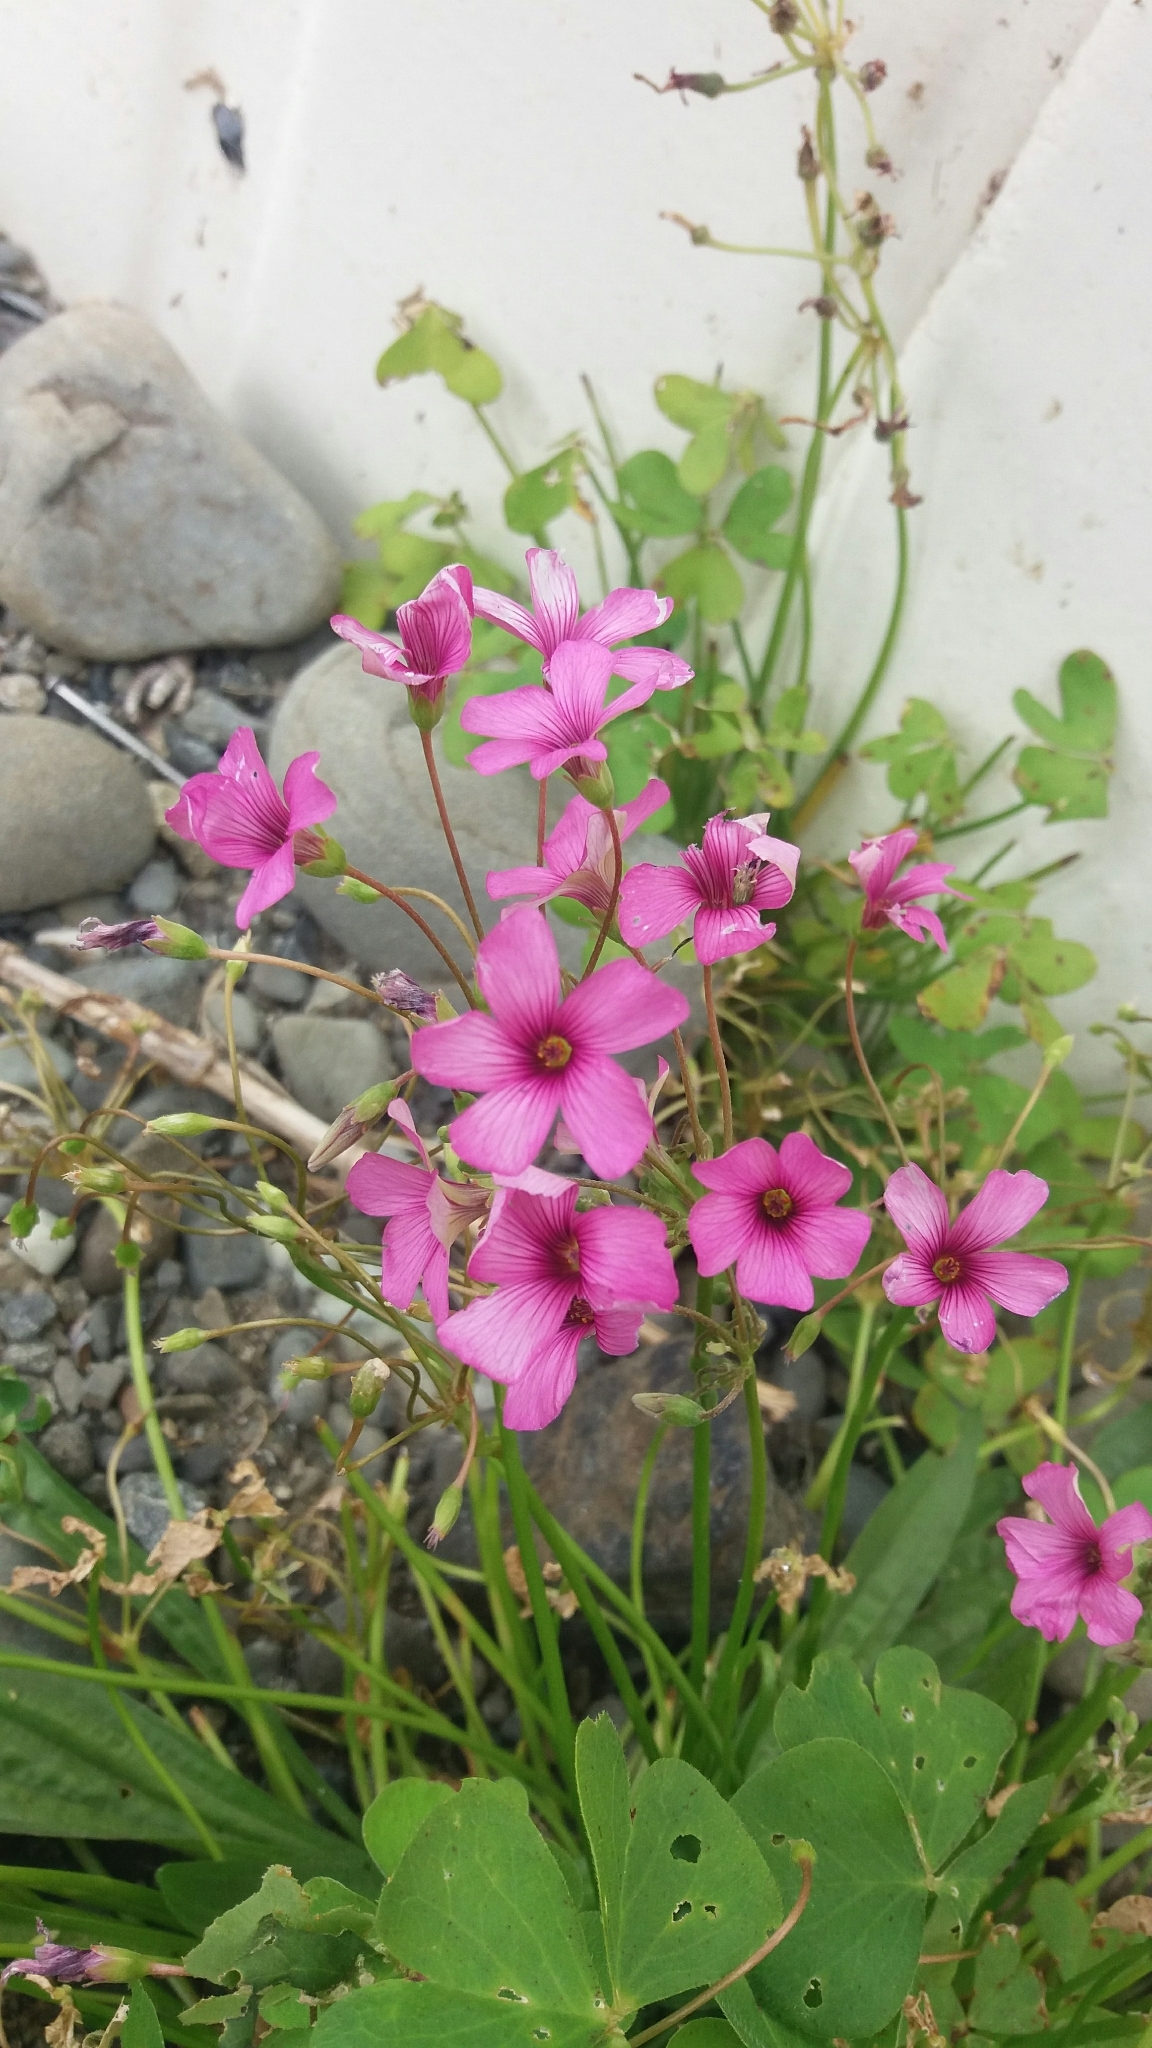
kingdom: Plantae
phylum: Tracheophyta
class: Magnoliopsida
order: Oxalidales
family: Oxalidaceae
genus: Oxalis
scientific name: Oxalis articulata
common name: Pink-sorrel
